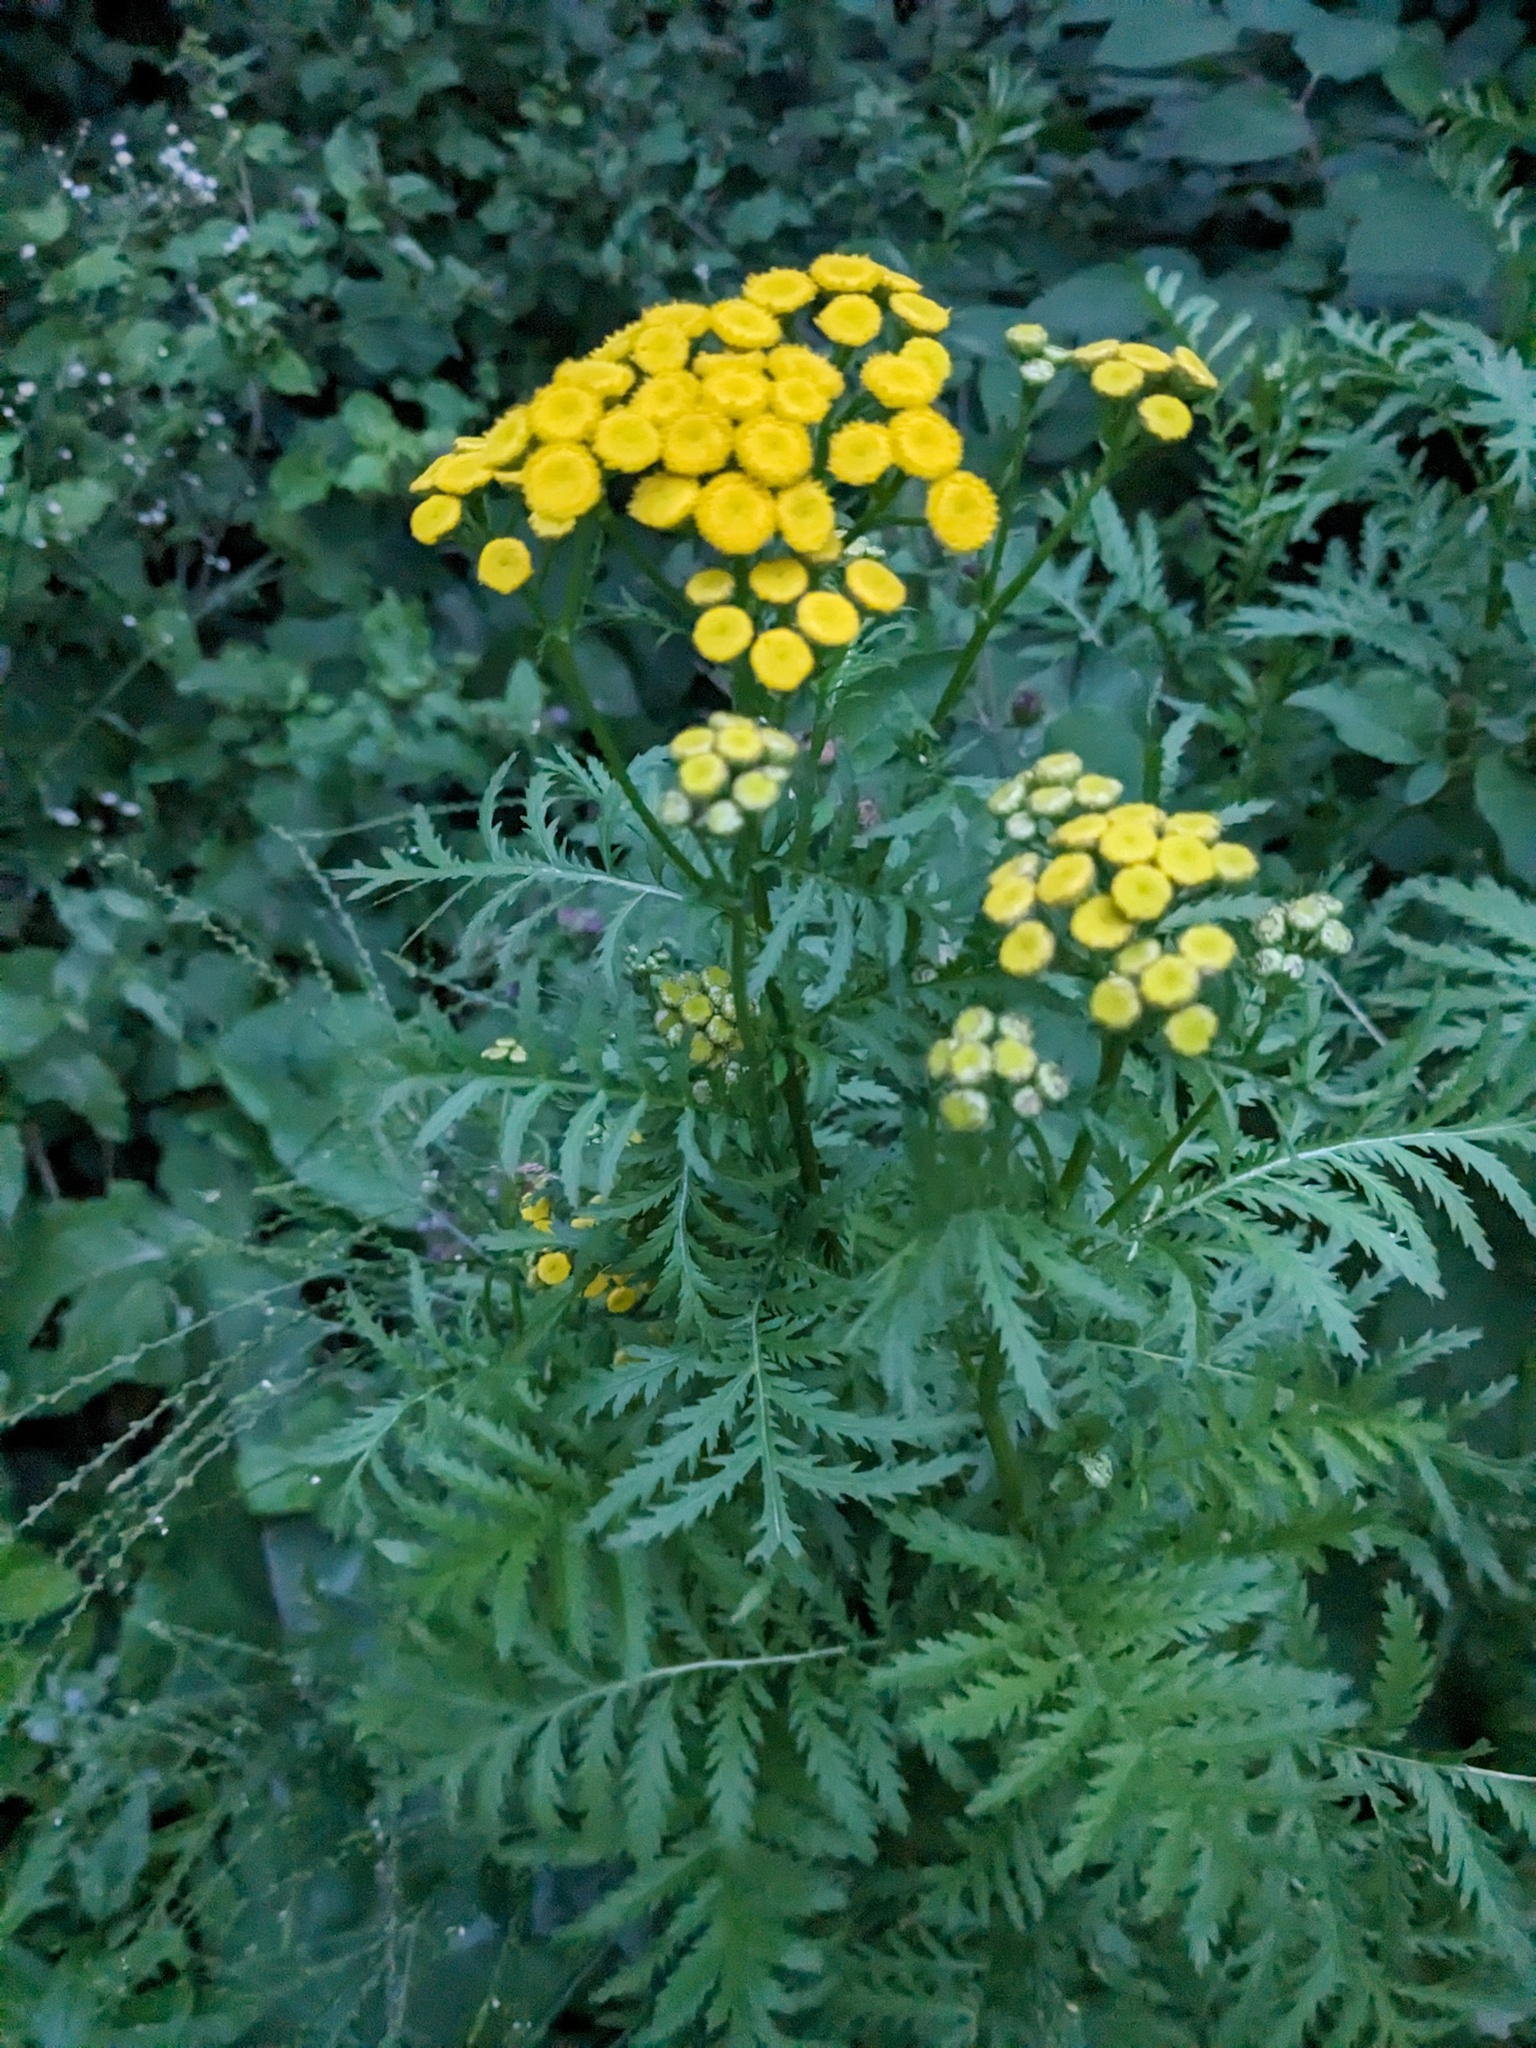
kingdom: Plantae
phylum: Tracheophyta
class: Magnoliopsida
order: Asterales
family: Asteraceae
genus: Tanacetum
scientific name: Tanacetum vulgare
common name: Common tansy
